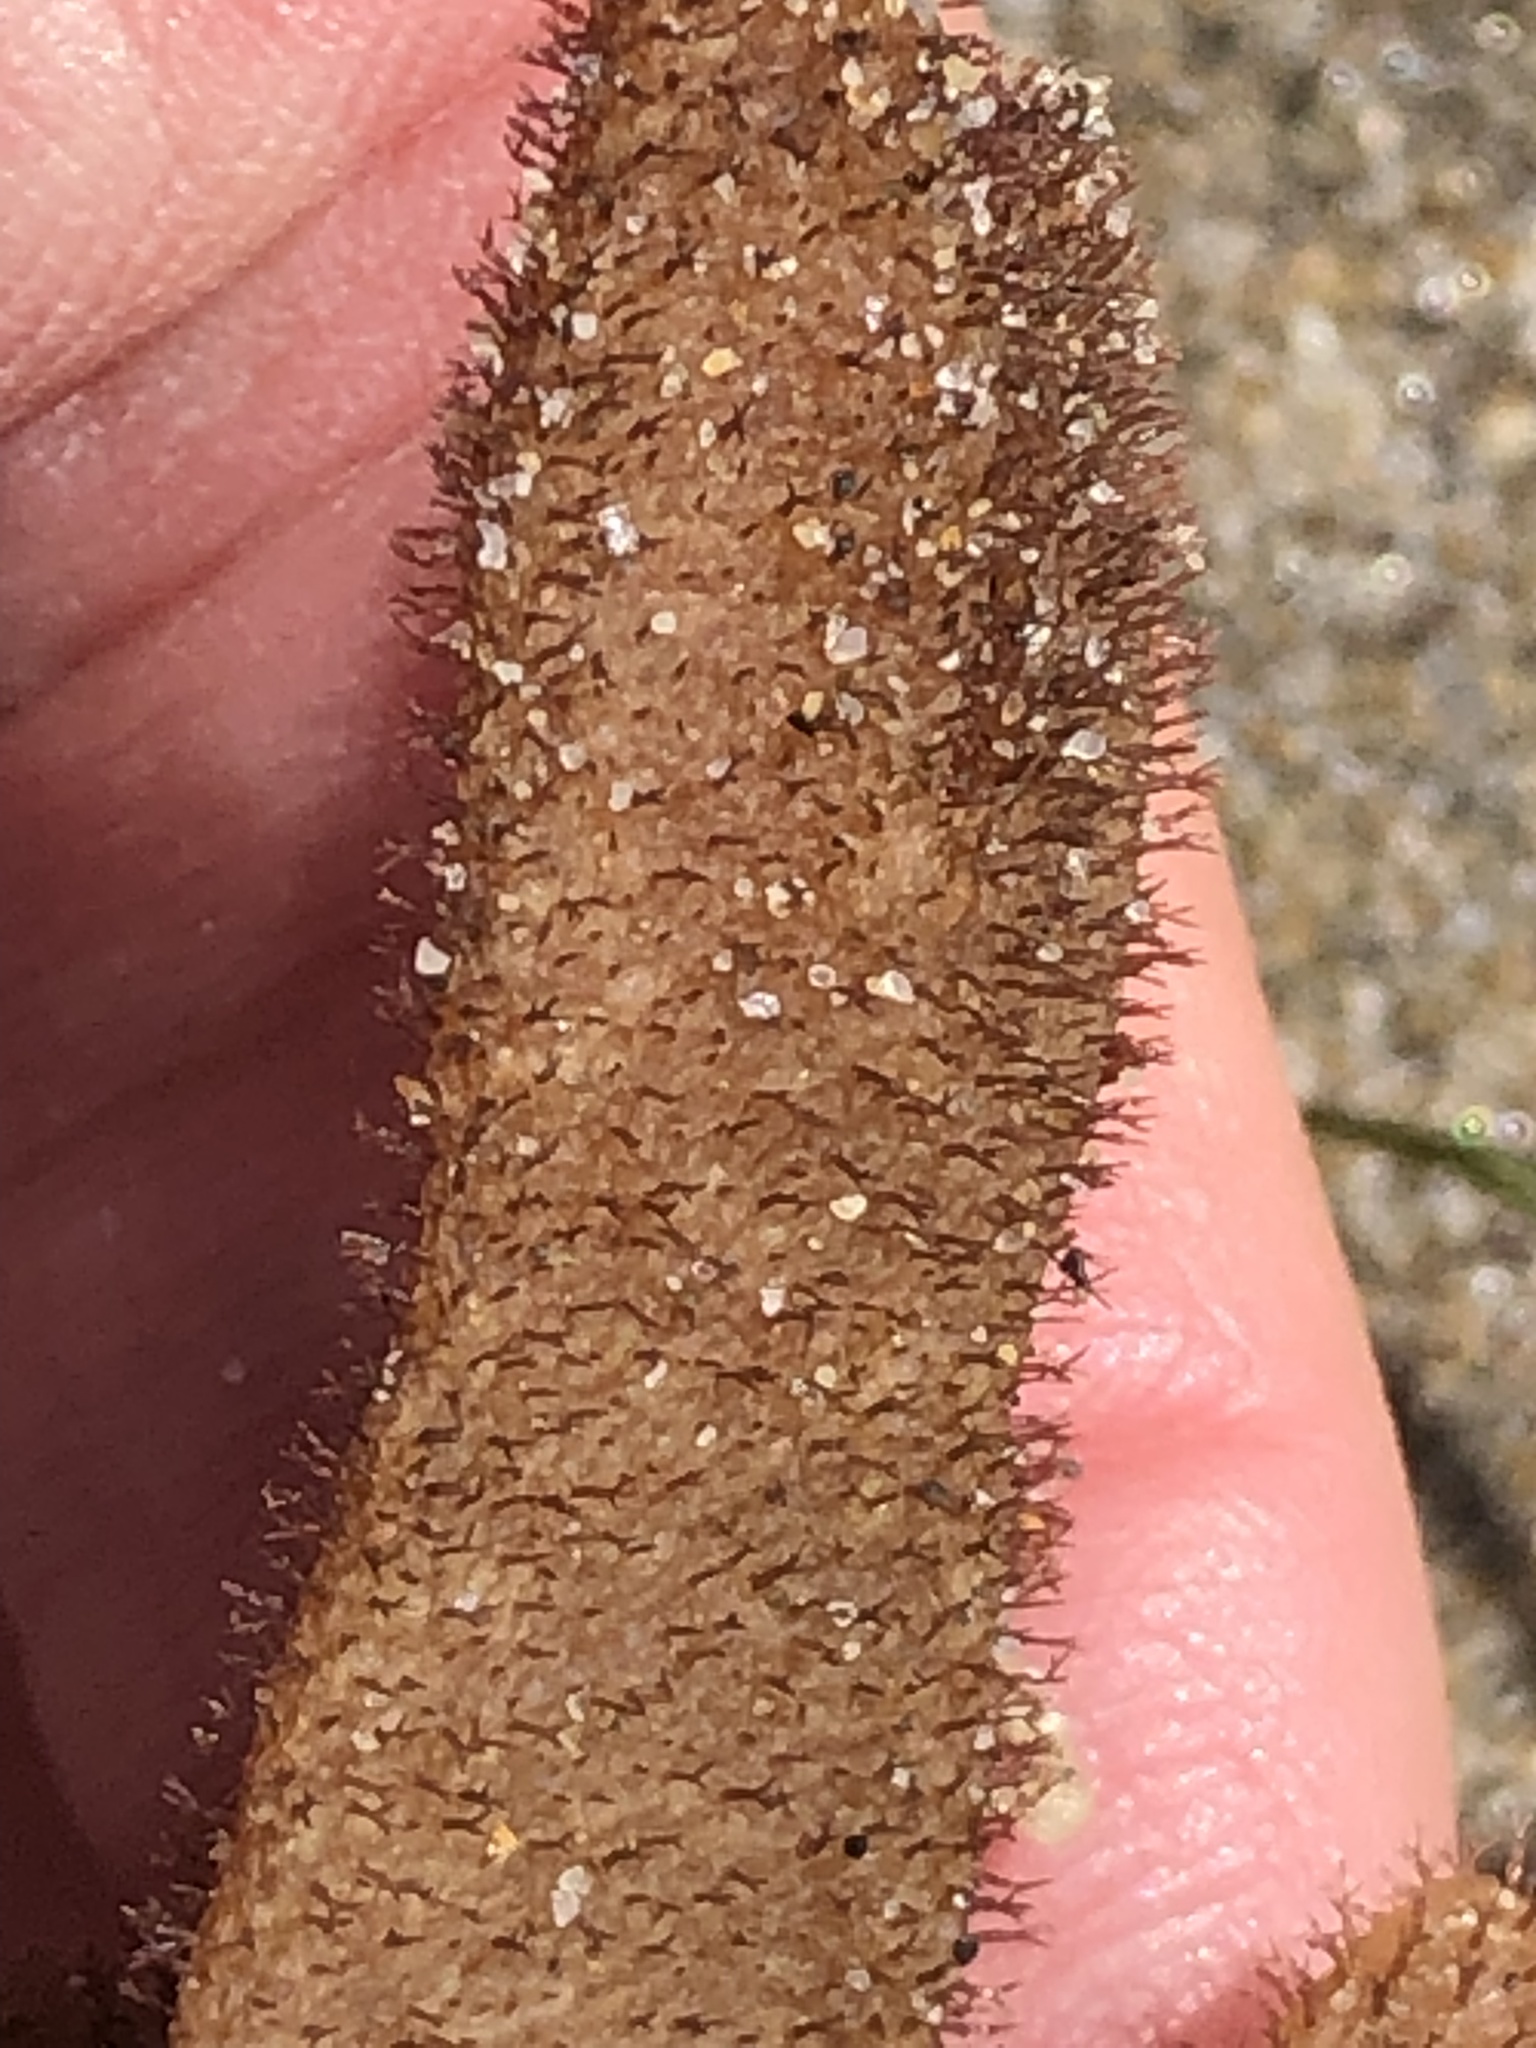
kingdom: Animalia
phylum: Bryozoa
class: Gymnolaemata
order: Ctenostomatida
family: Flustrellidridae
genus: Flustrellidra
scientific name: Flustrellidra corniculata
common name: Spiny leather bryozoan
